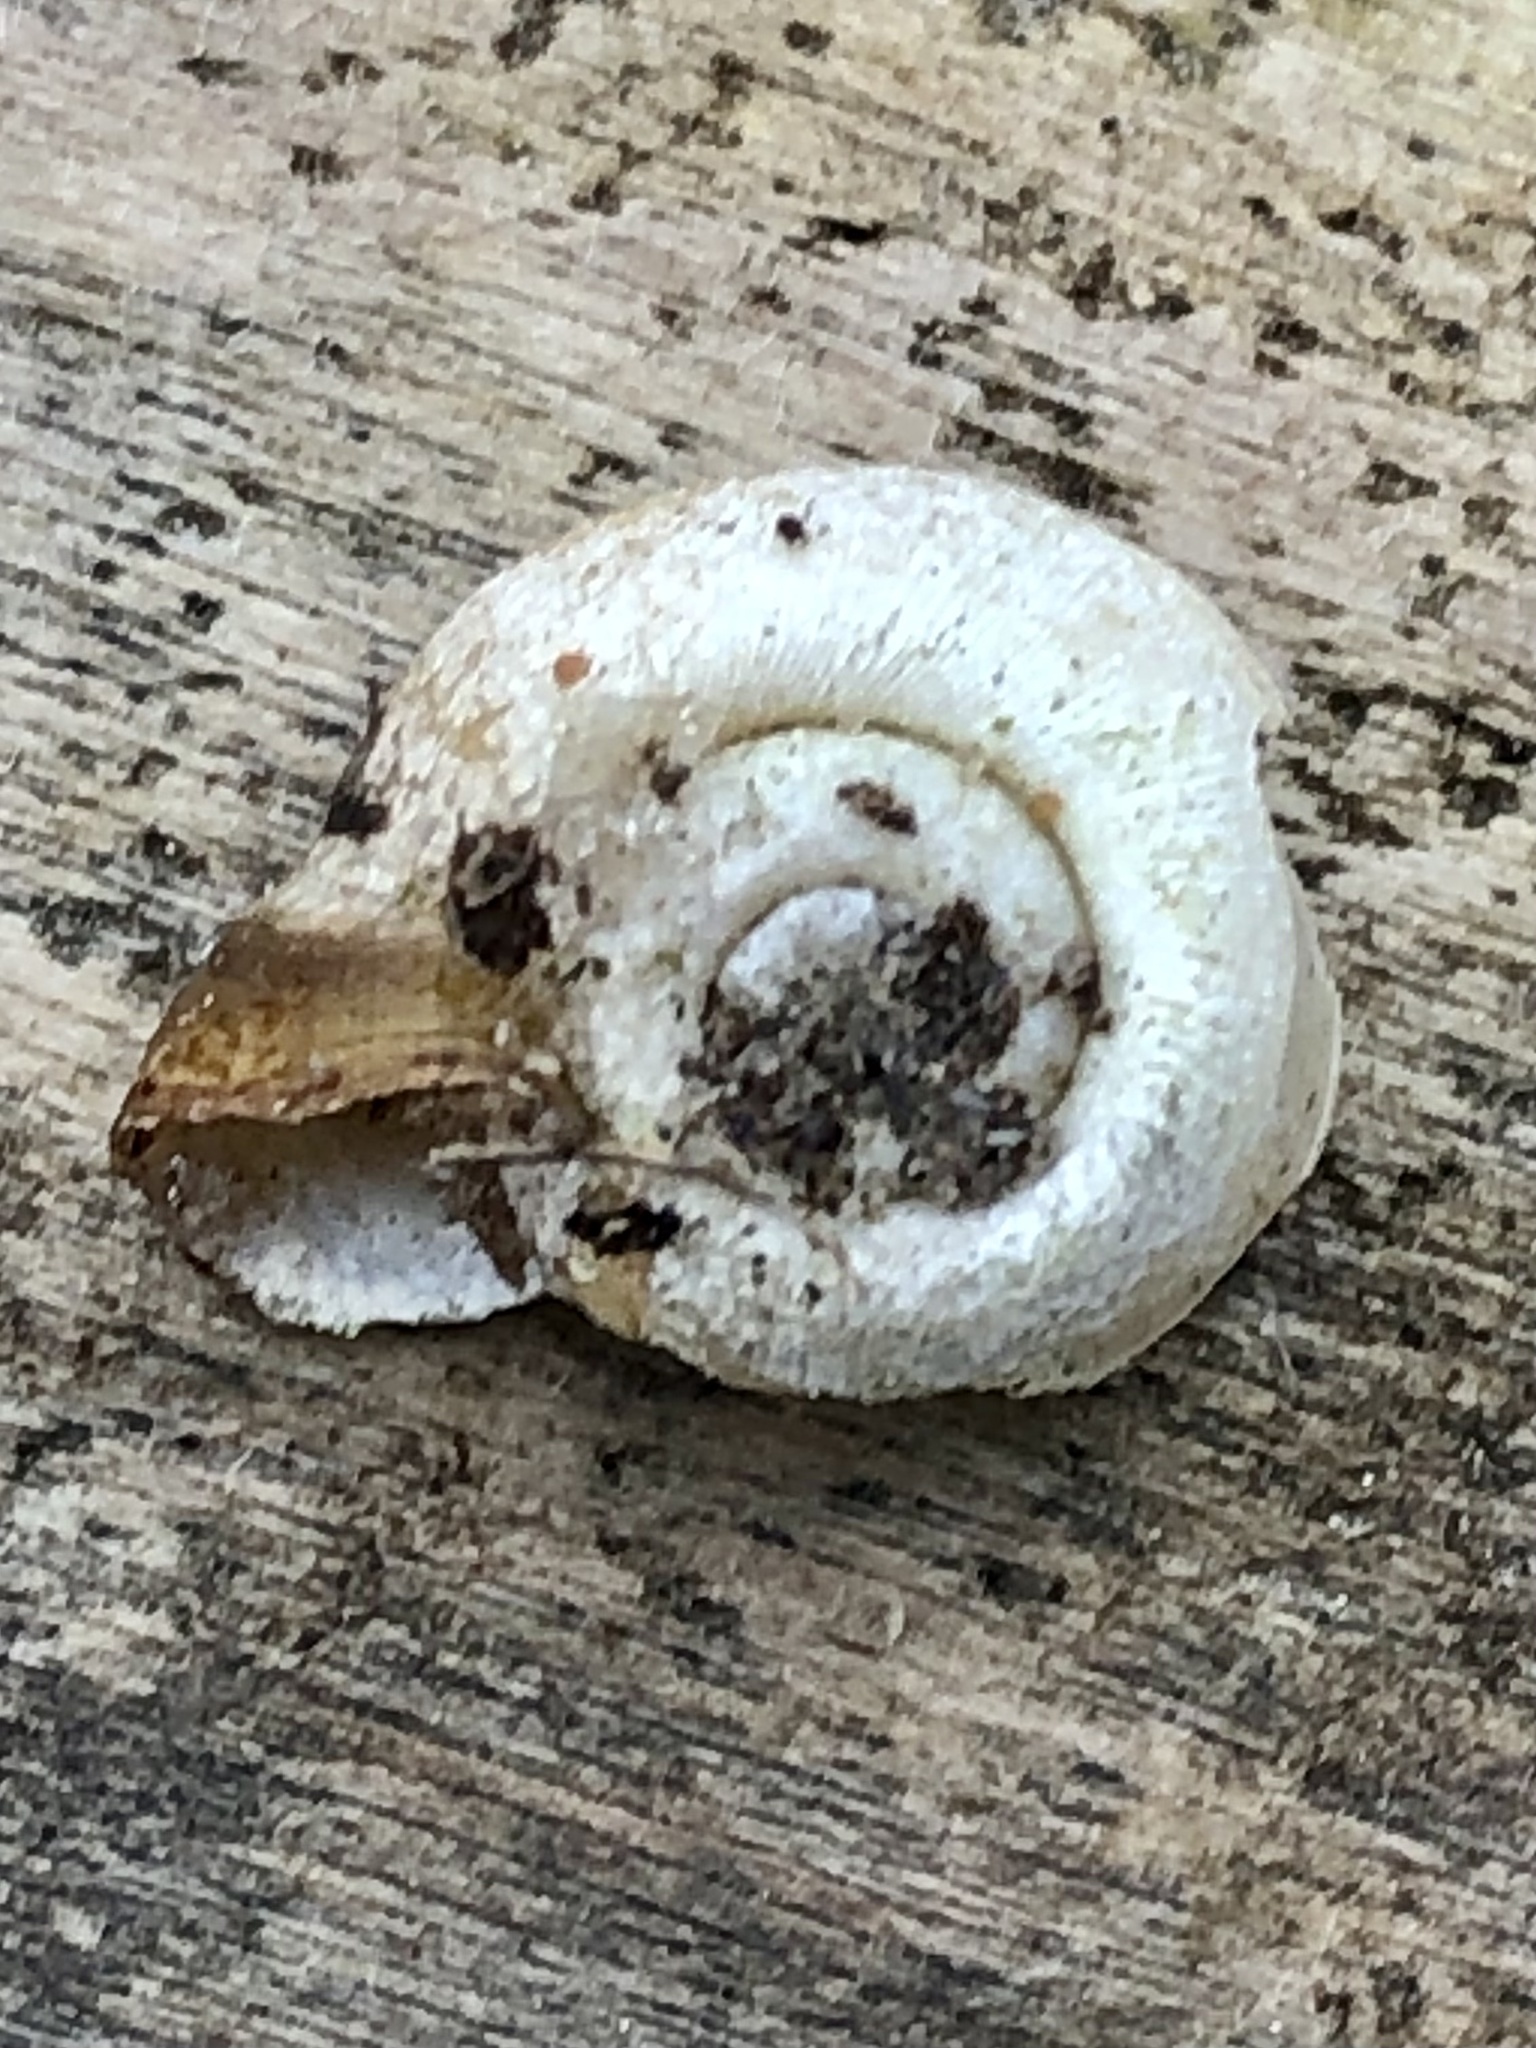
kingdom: Animalia
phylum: Mollusca
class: Gastropoda
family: Planorbidae
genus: Planorbella
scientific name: Planorbella campanulata
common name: Bellmouth ramshorn
